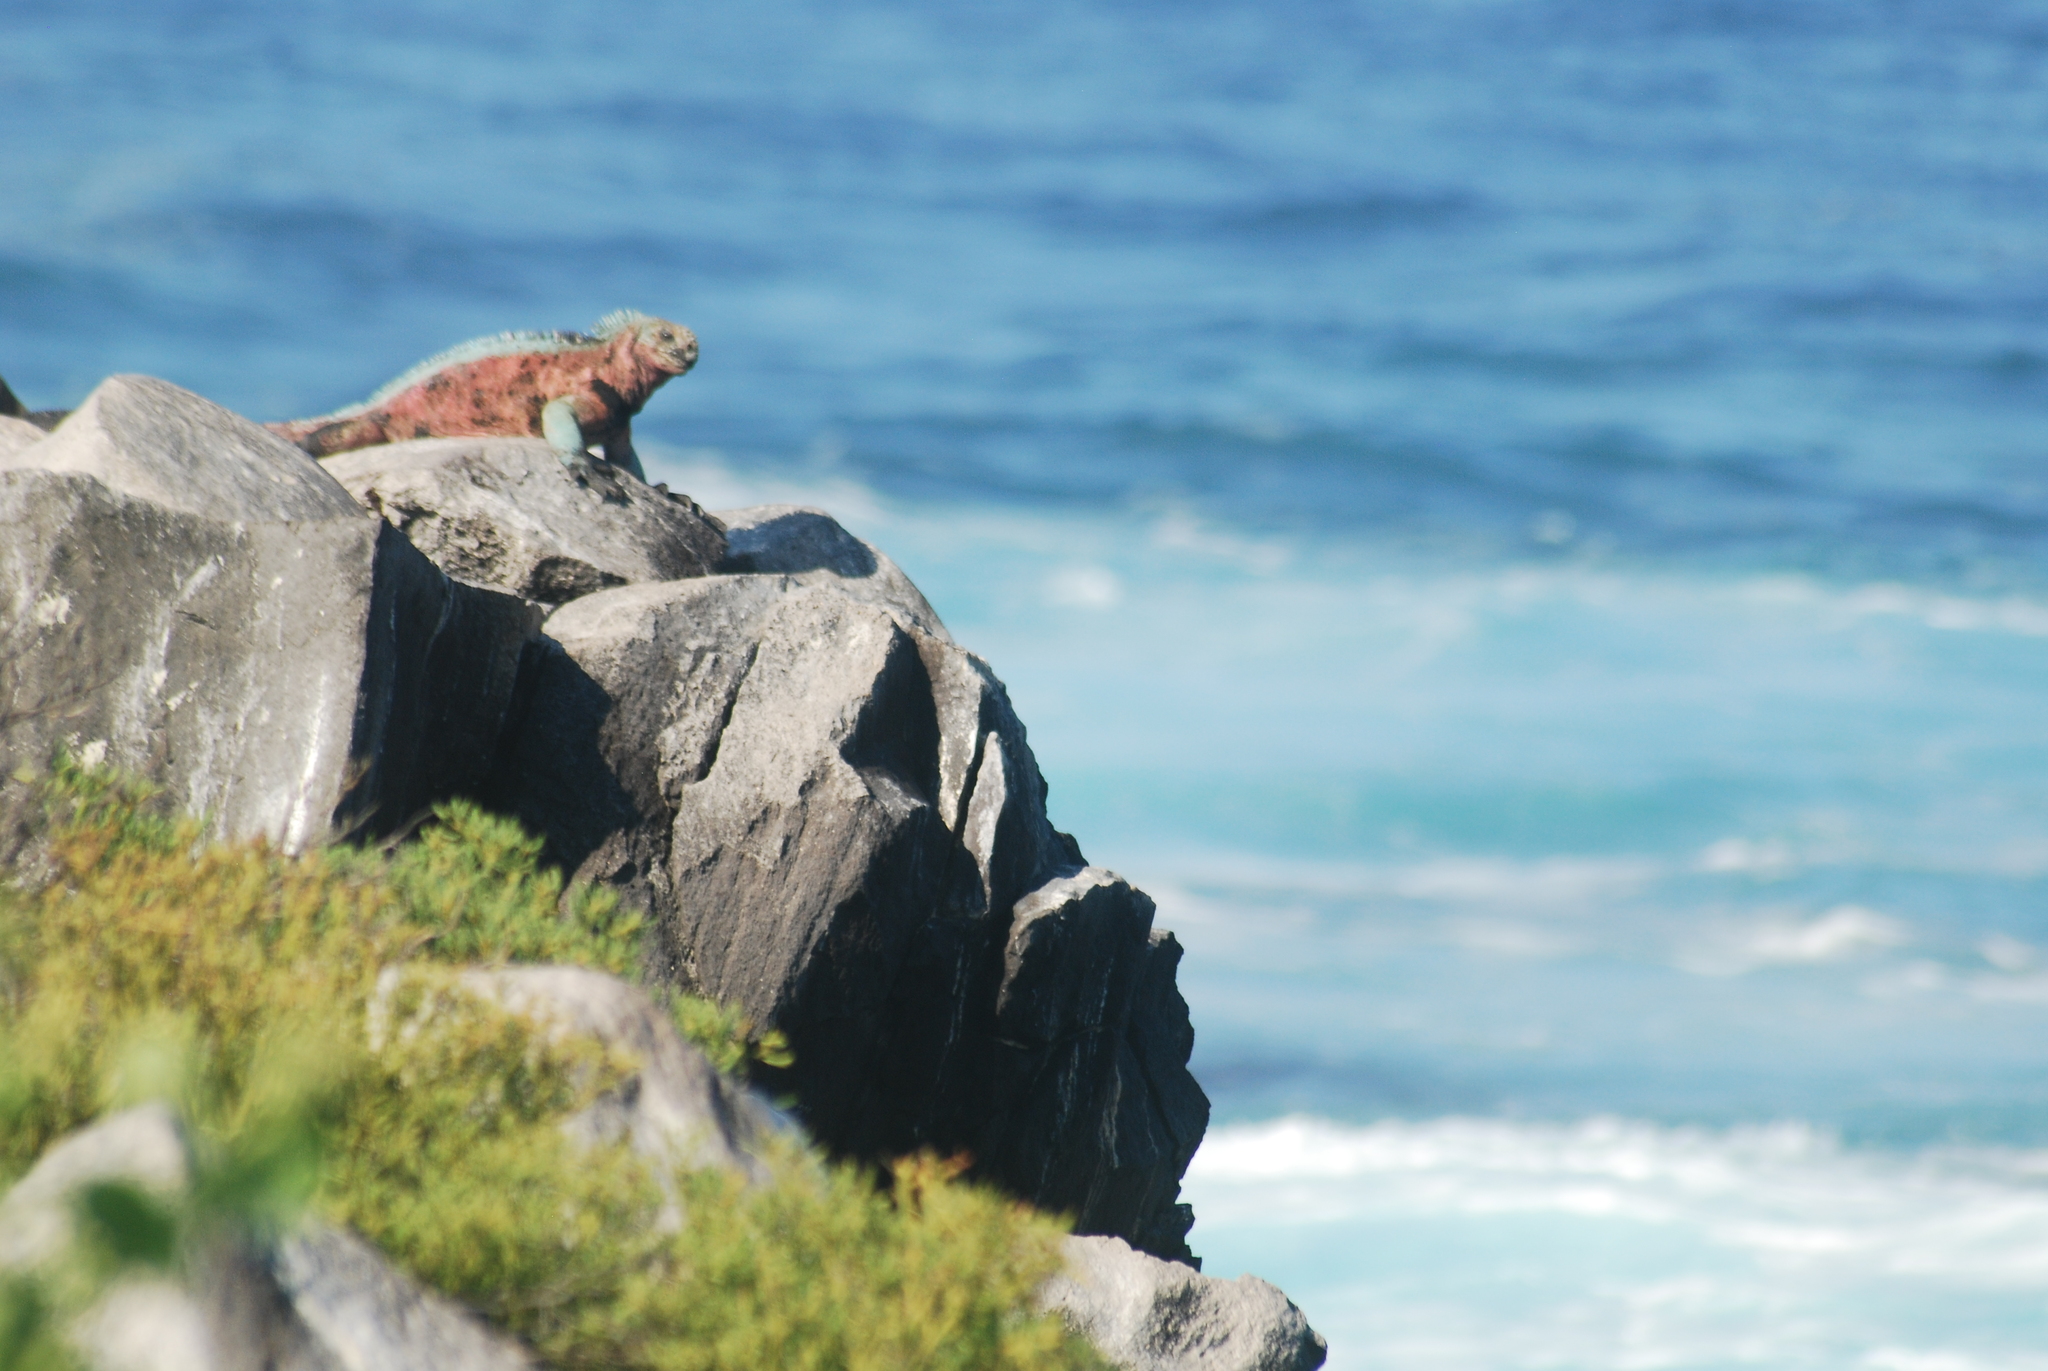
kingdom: Animalia
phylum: Chordata
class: Squamata
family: Iguanidae
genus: Amblyrhynchus
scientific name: Amblyrhynchus cristatus
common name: Marine iguana
